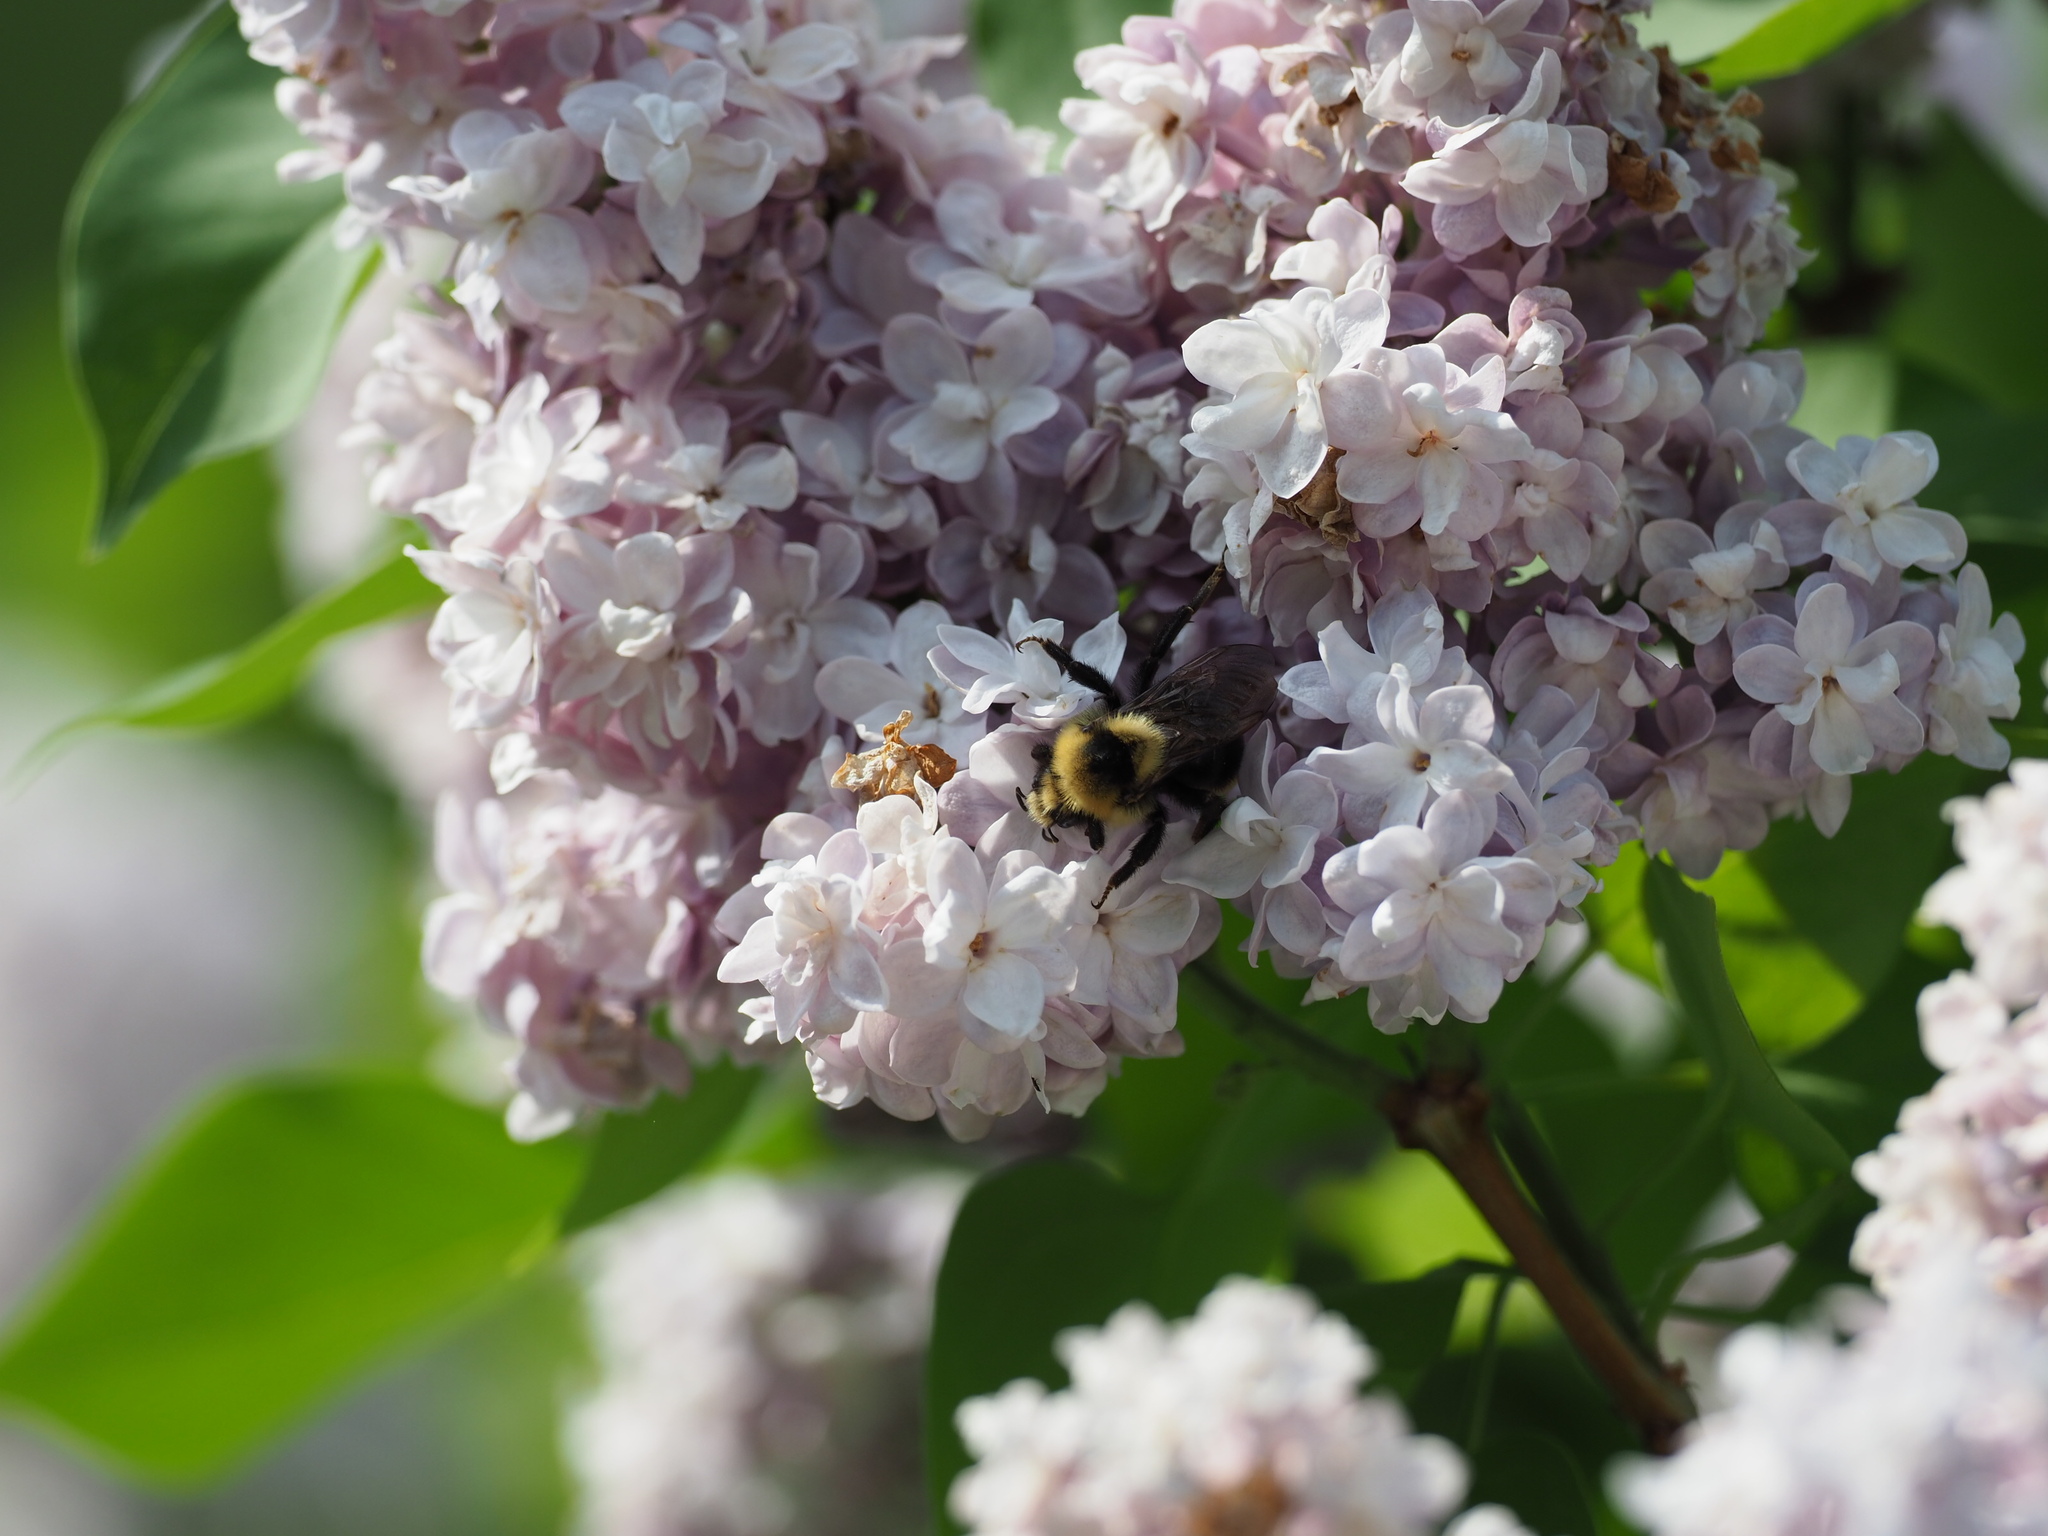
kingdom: Animalia
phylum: Arthropoda
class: Insecta
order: Hymenoptera
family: Apidae
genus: Bombus
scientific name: Bombus insularis
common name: Indiscriminate cuckoo bumble bee
